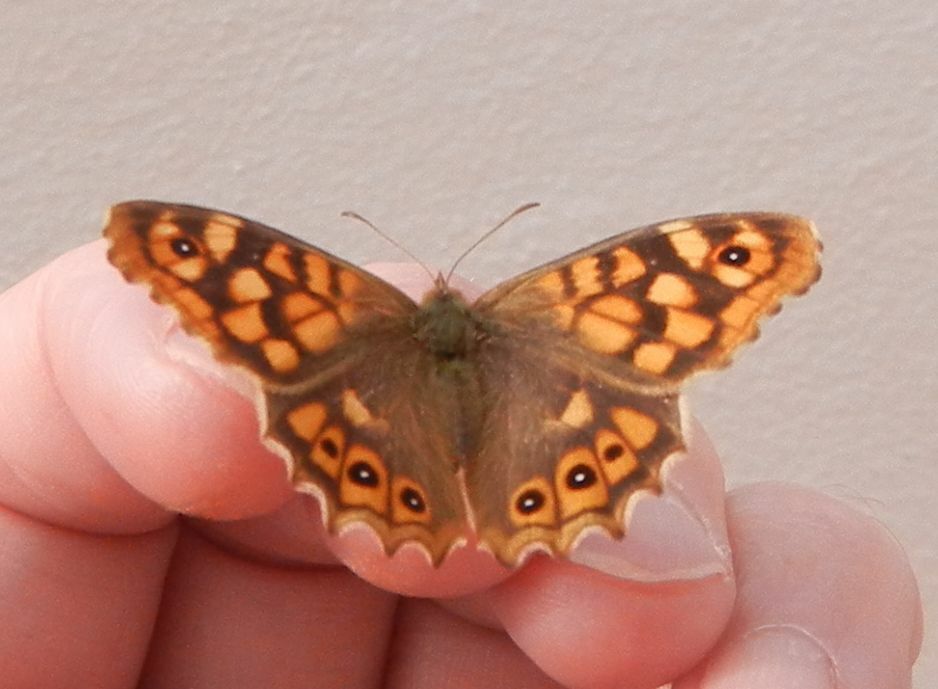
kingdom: Animalia
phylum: Arthropoda
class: Insecta
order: Lepidoptera
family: Nymphalidae
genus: Pararge
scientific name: Pararge aegeria
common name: Speckled wood
